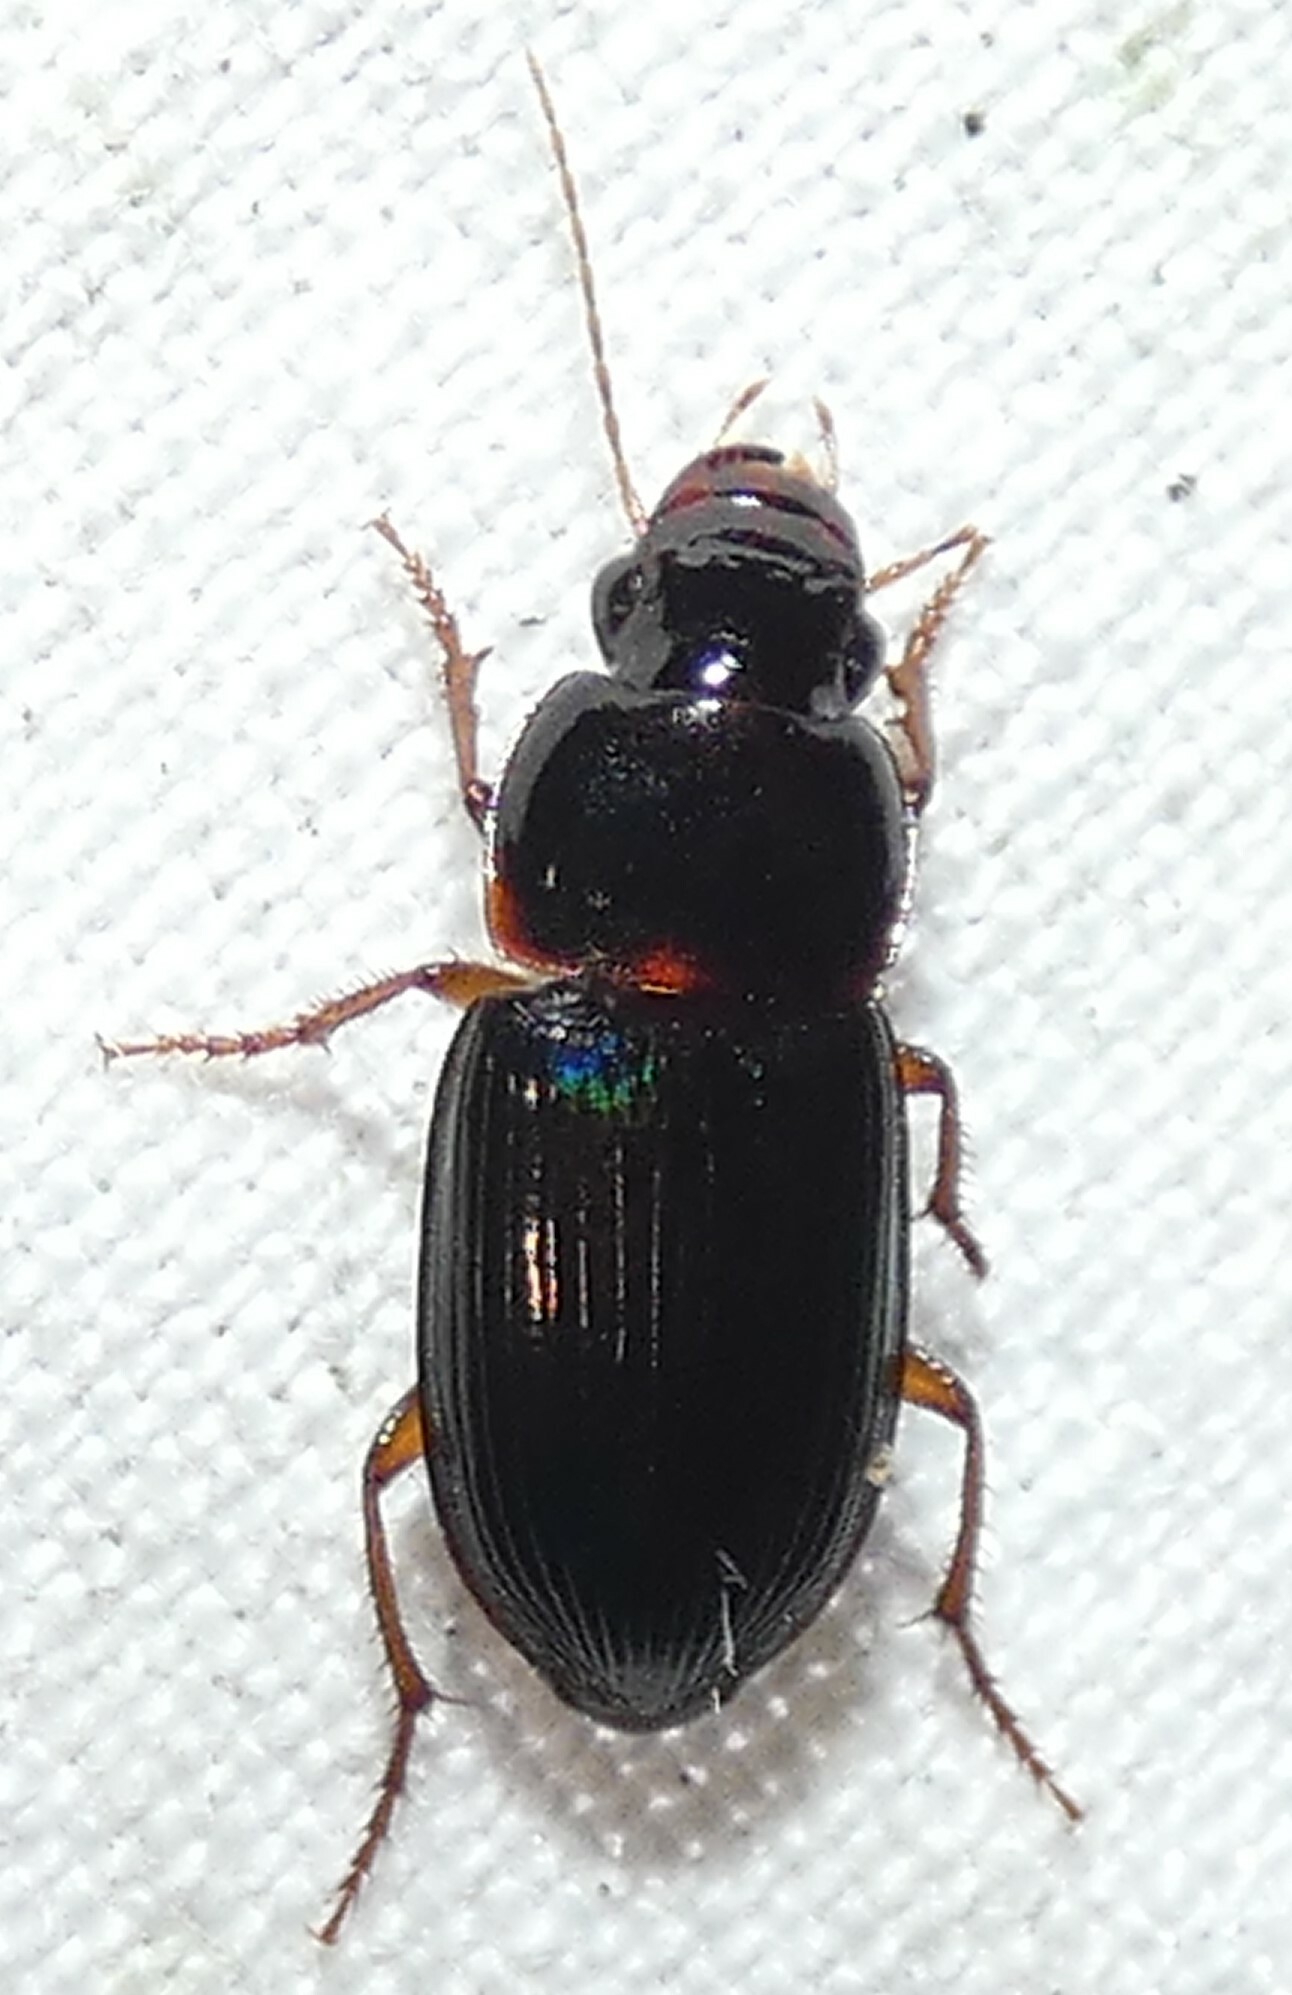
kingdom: Animalia
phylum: Arthropoda
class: Insecta
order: Coleoptera
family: Carabidae
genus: Selenophorus
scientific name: Selenophorus opalinus
